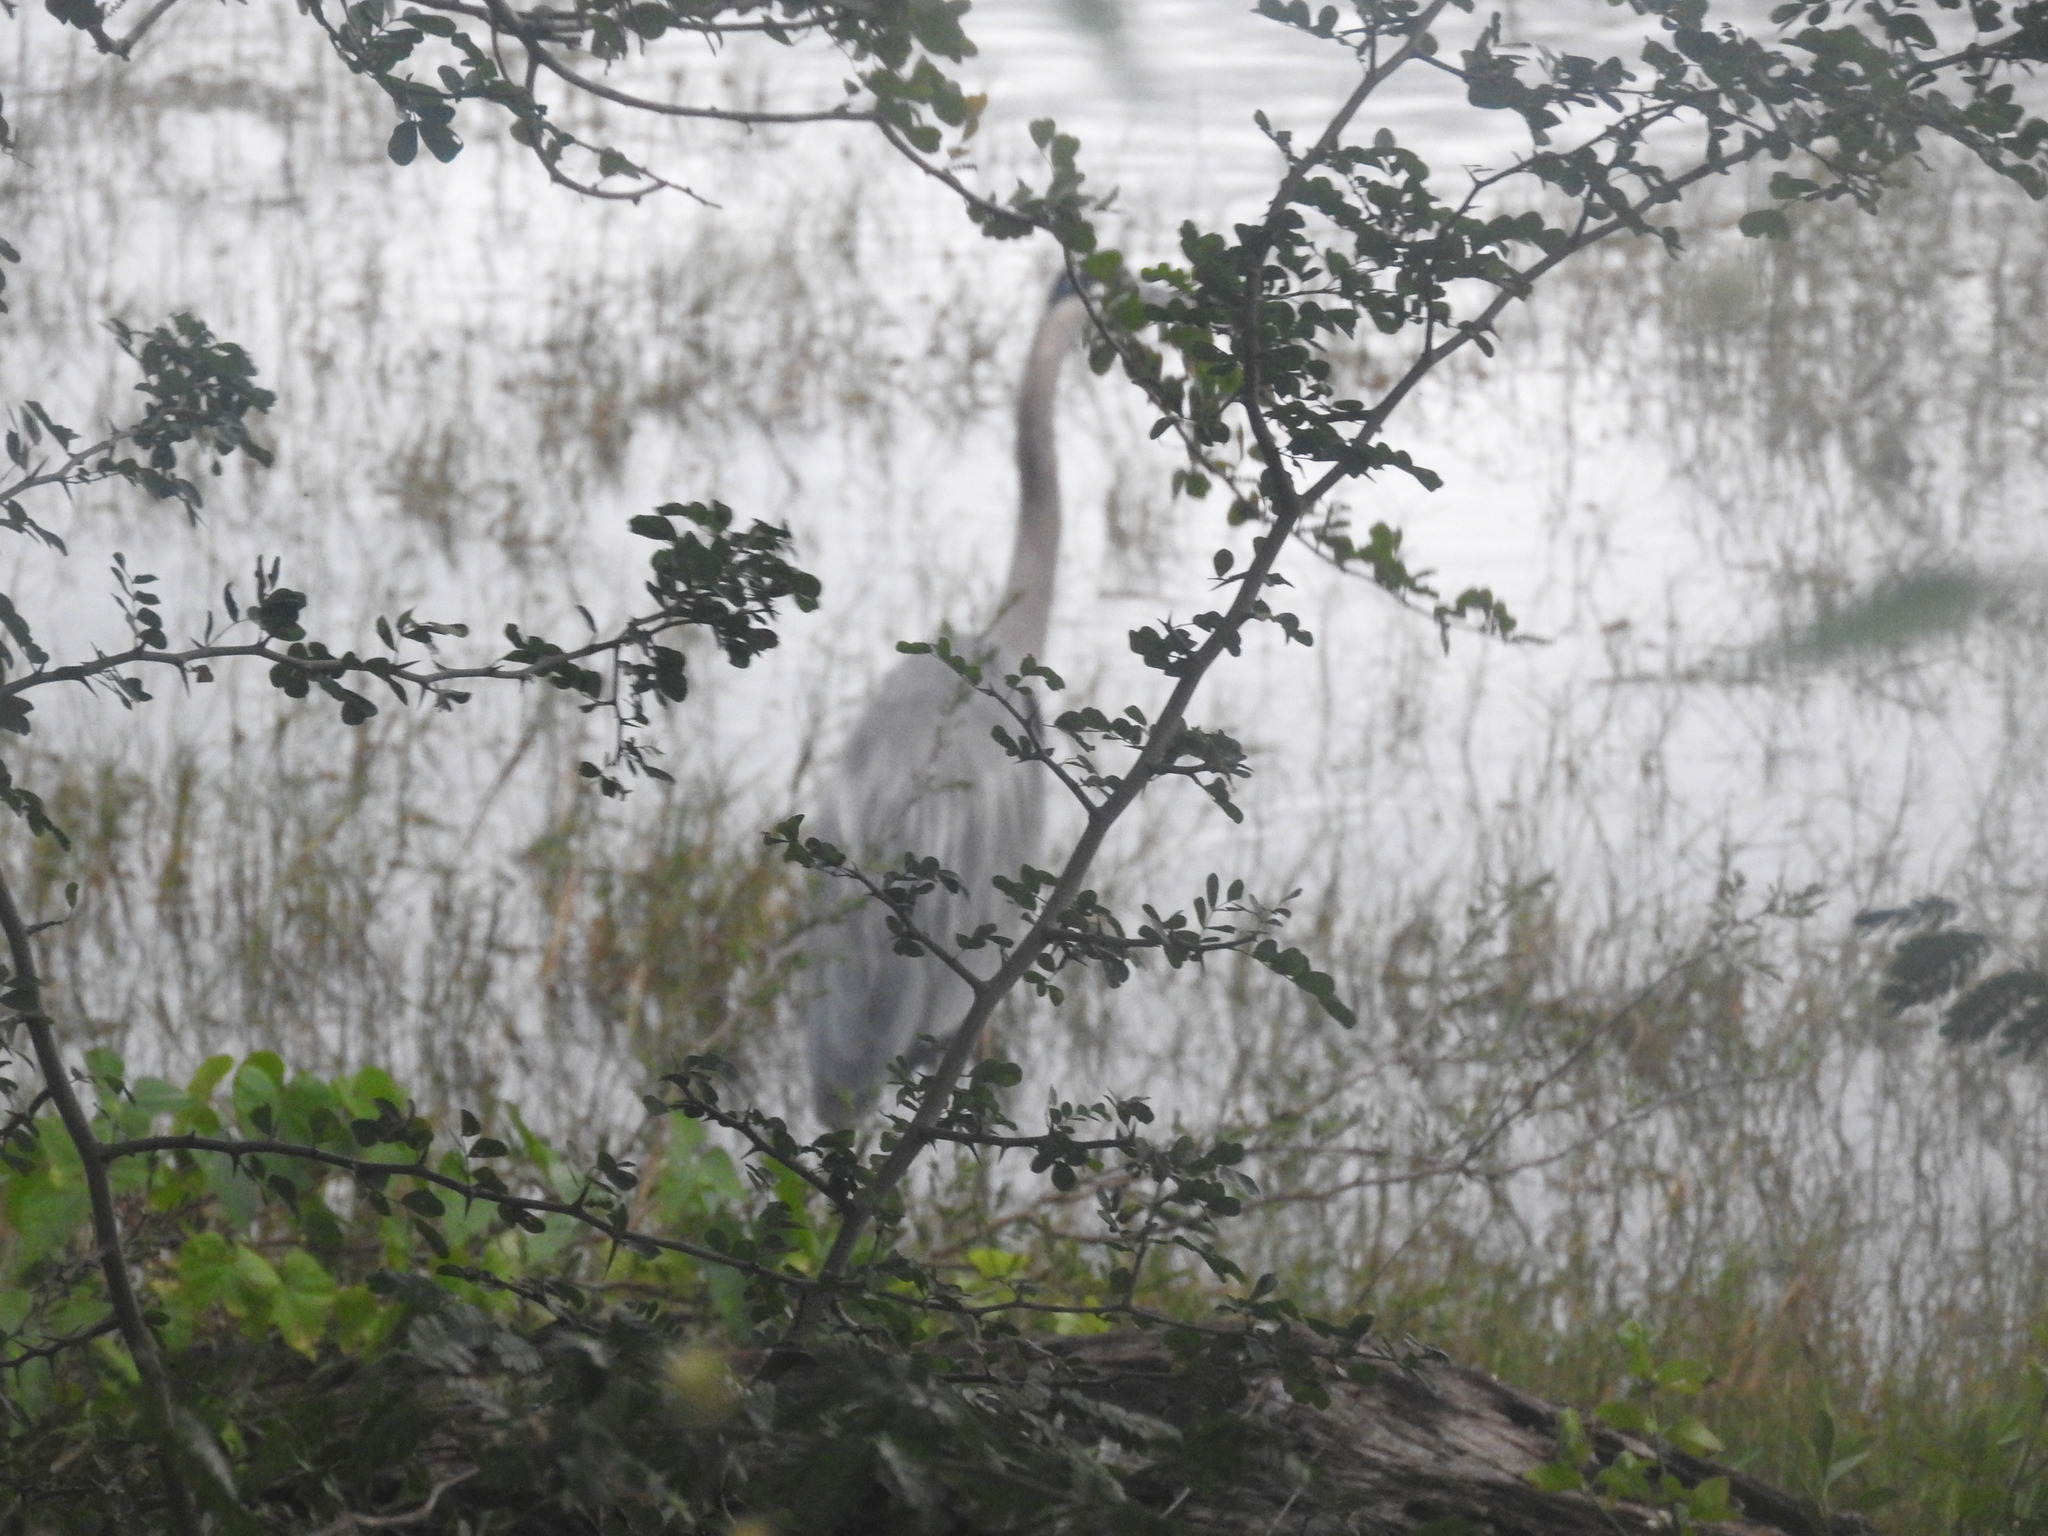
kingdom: Animalia
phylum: Chordata
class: Aves
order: Pelecaniformes
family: Ardeidae
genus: Ardea
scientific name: Ardea herodias
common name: Great blue heron
